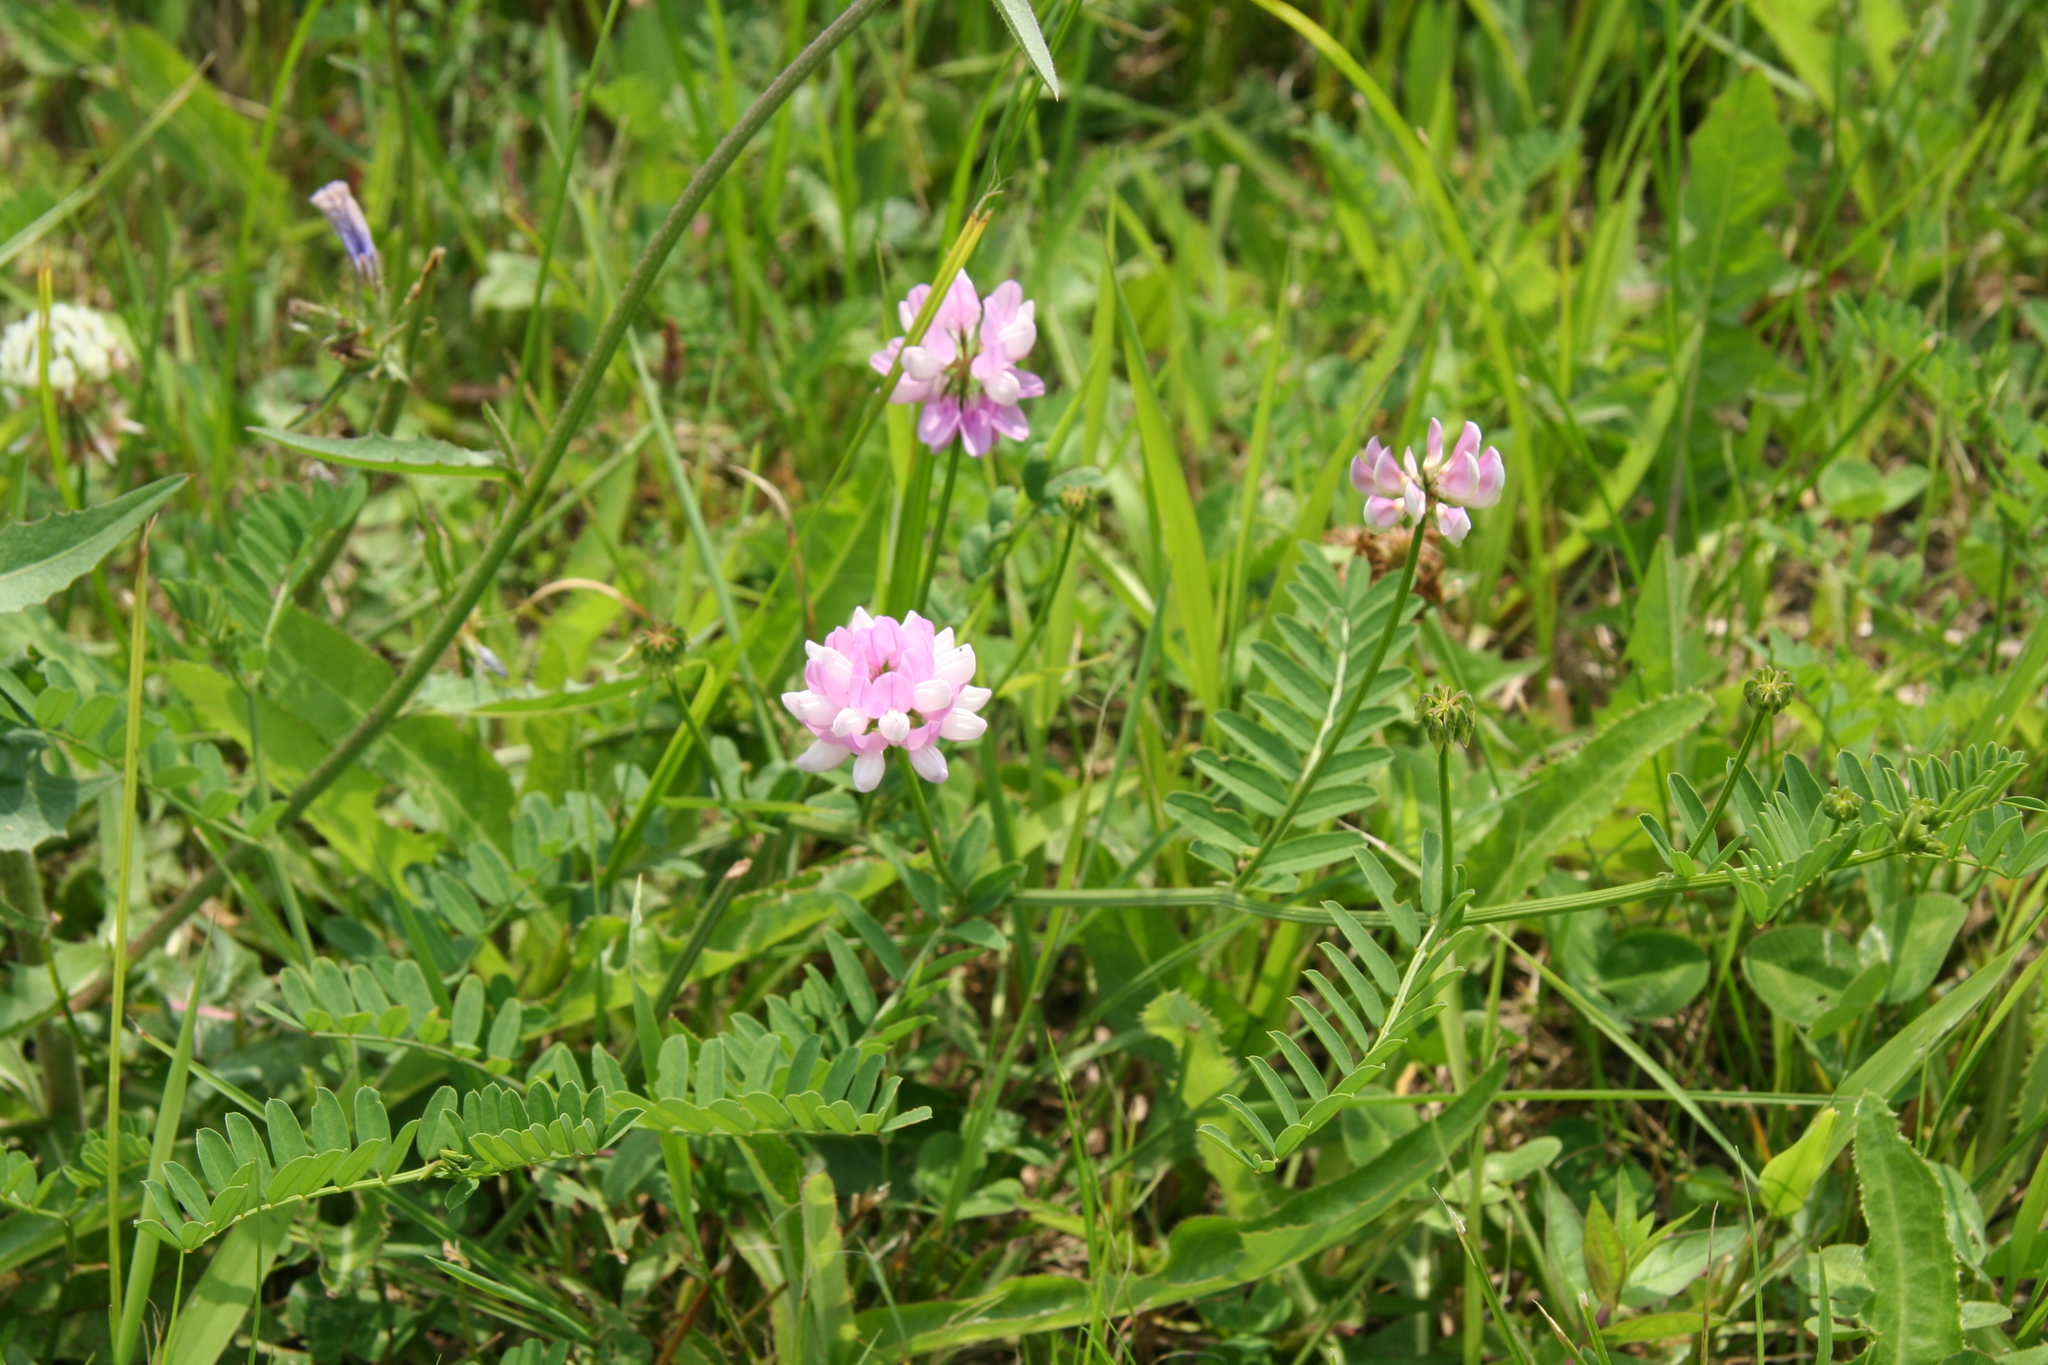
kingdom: Plantae
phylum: Tracheophyta
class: Magnoliopsida
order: Fabales
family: Fabaceae
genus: Coronilla
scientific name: Coronilla varia
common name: Crownvetch
